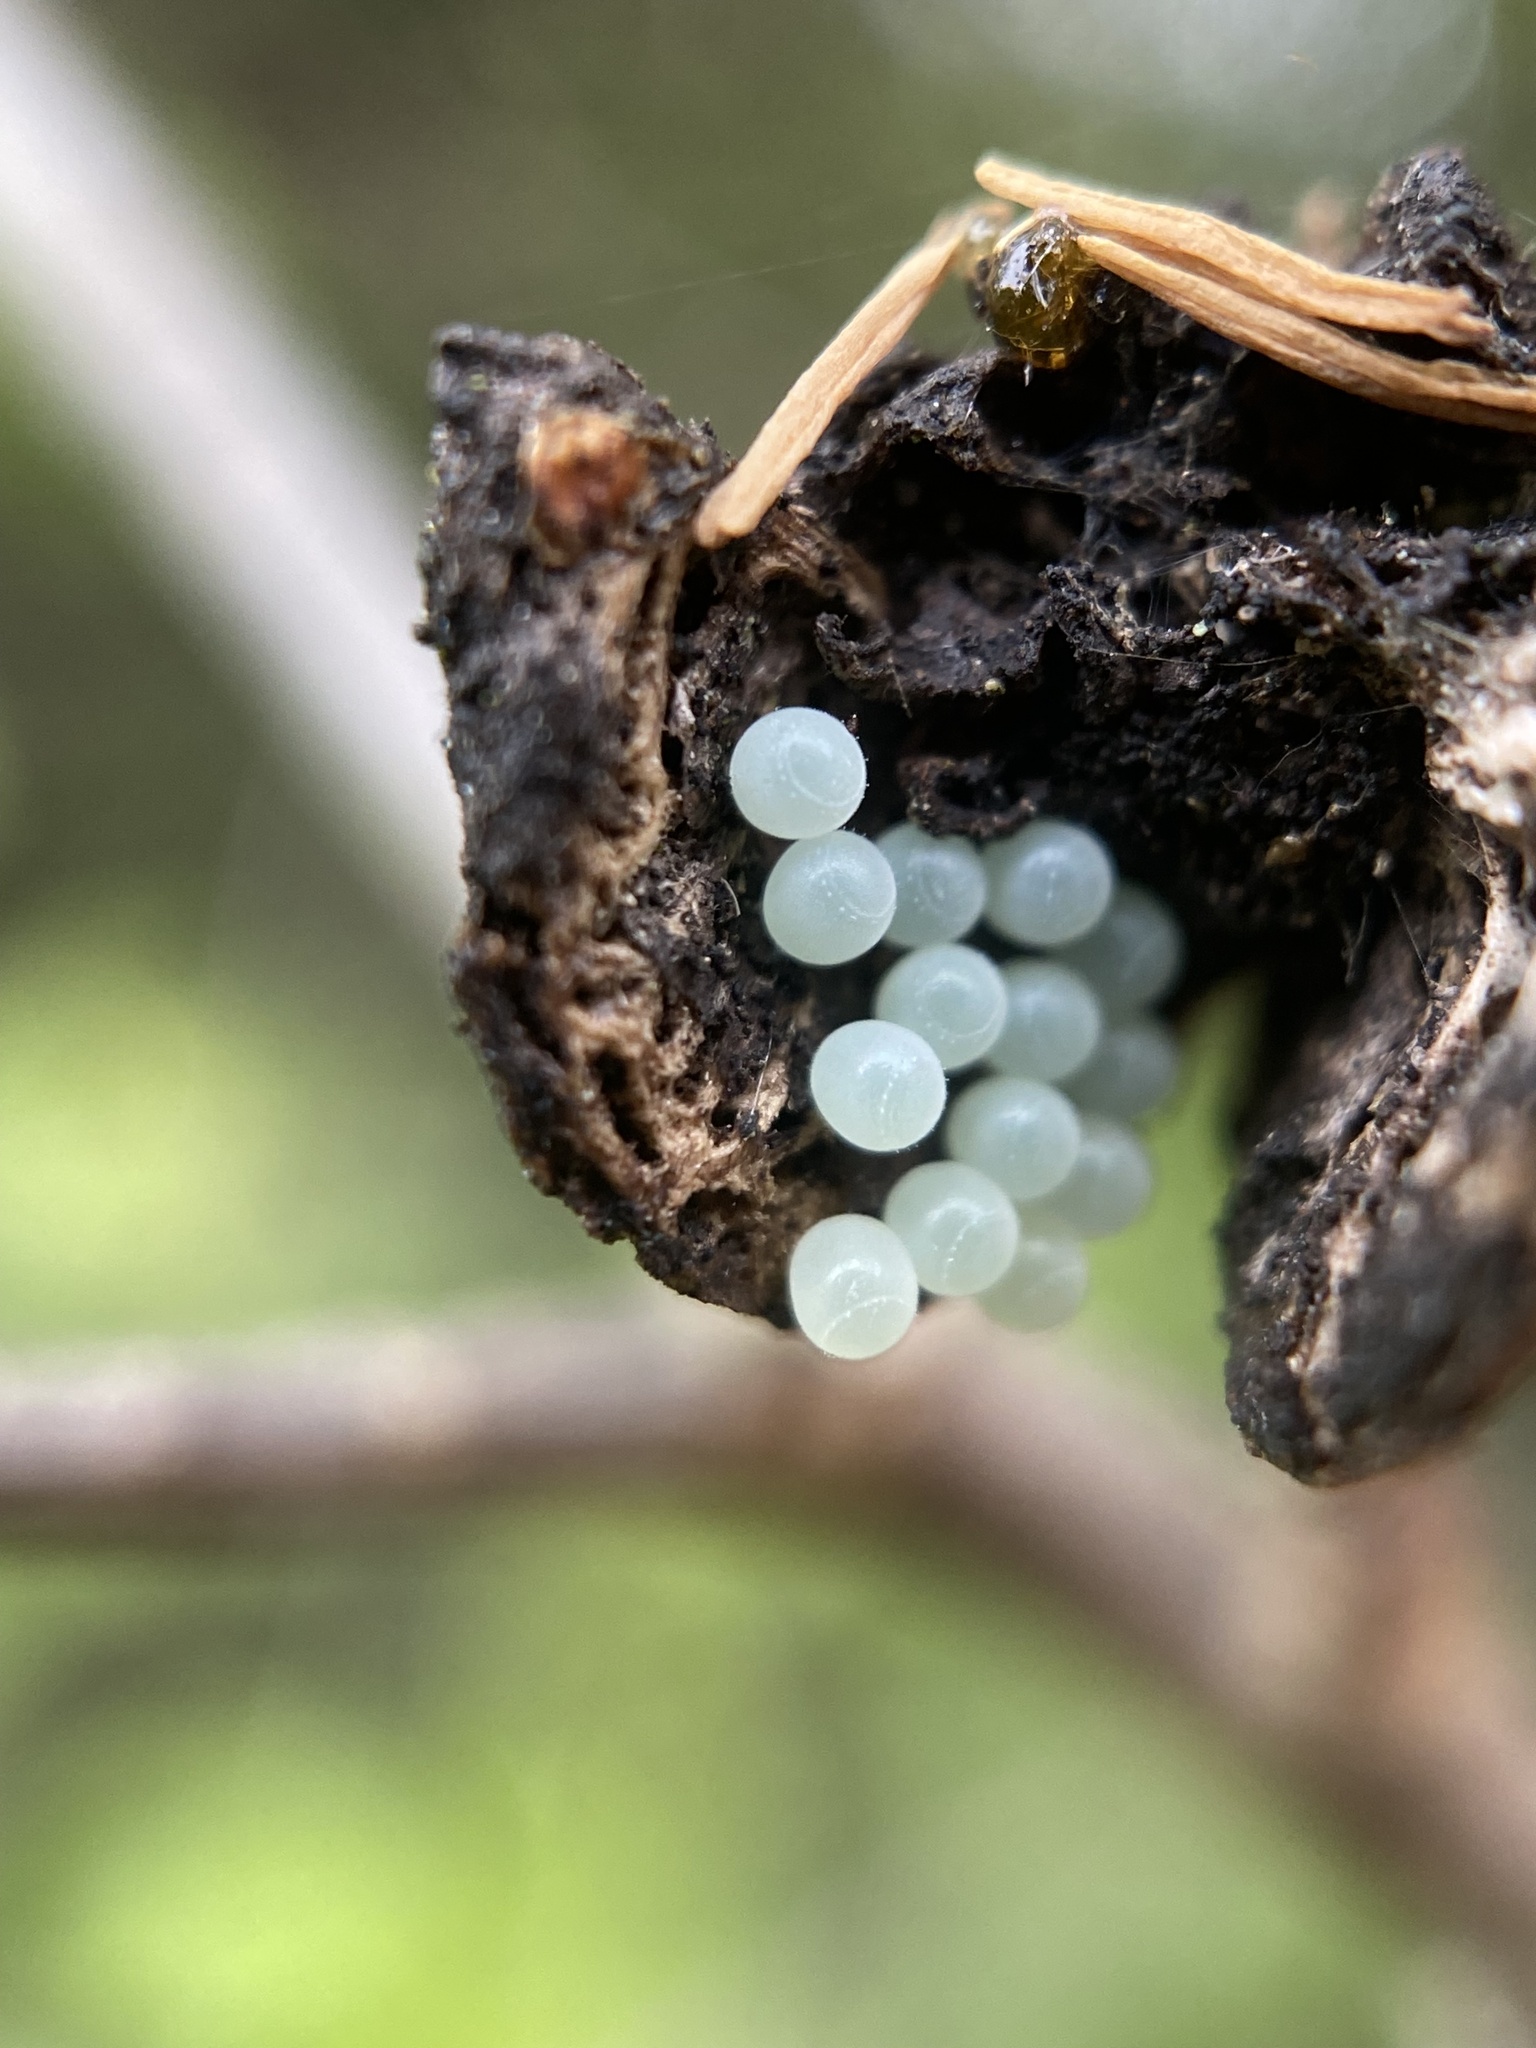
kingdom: Animalia
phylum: Arthropoda
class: Insecta
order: Hemiptera
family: Pentatomidae
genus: Monteithiella
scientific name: Monteithiella
